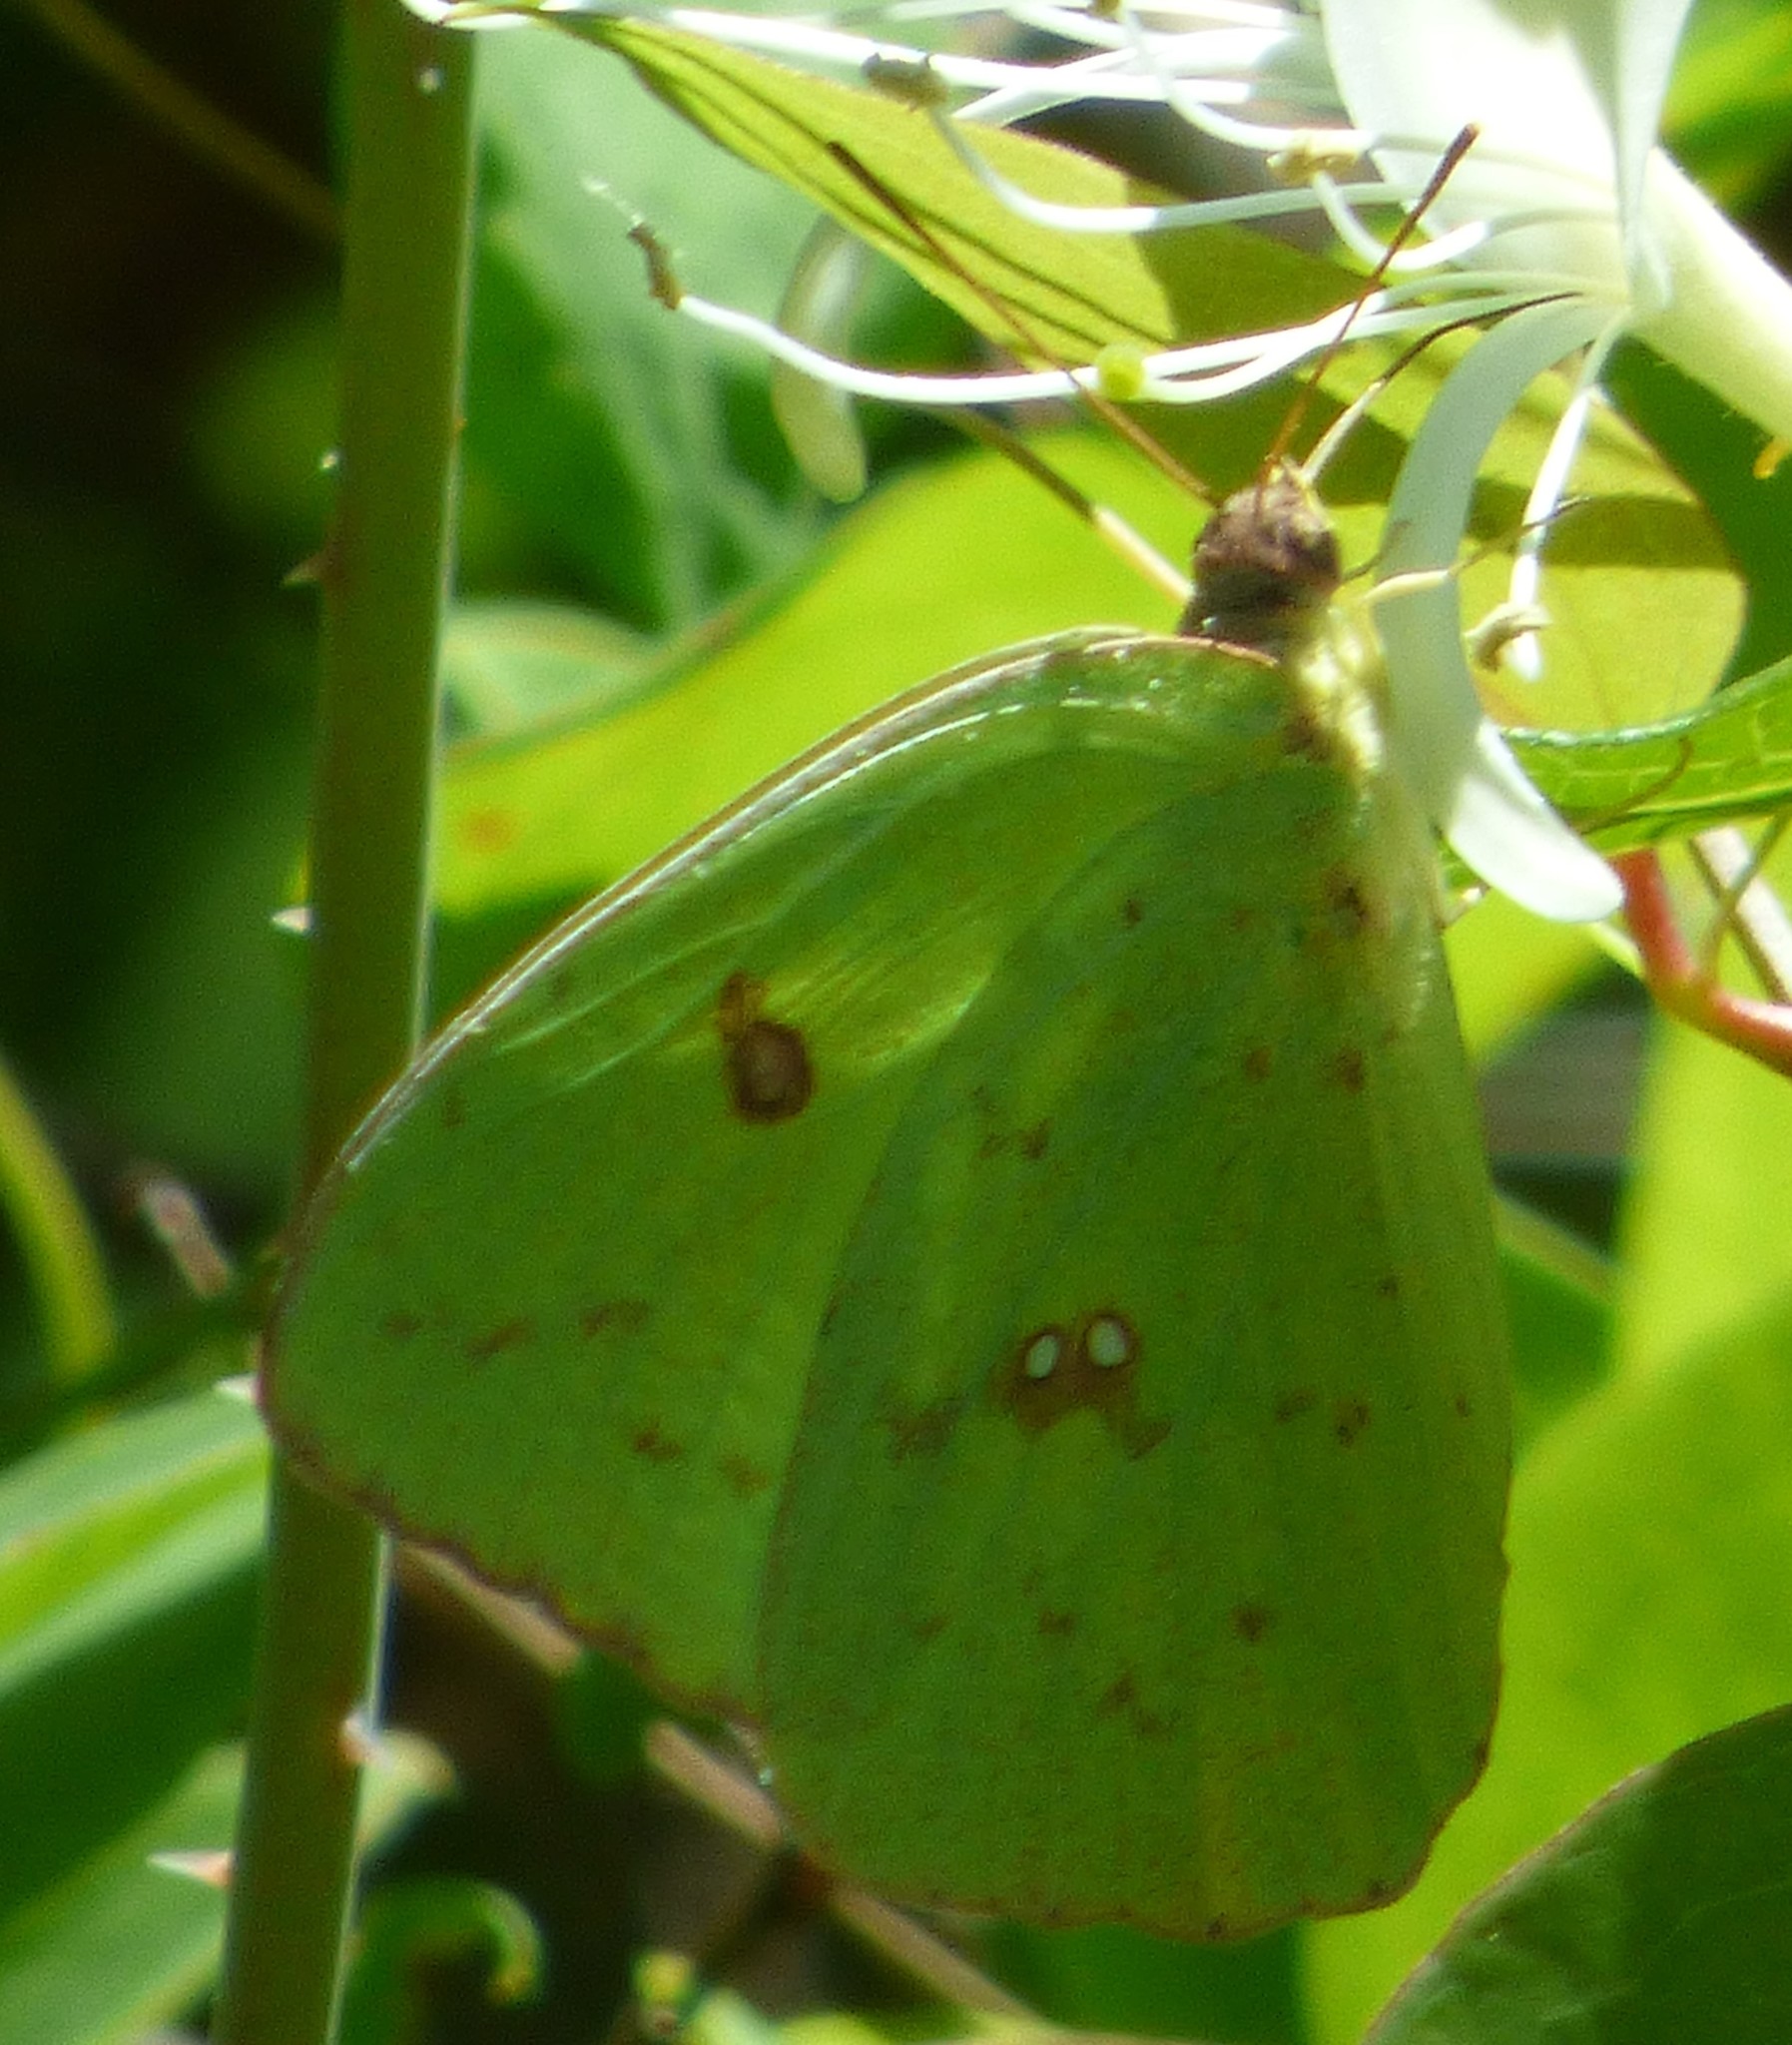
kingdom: Animalia
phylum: Arthropoda
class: Insecta
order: Lepidoptera
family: Pieridae
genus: Phoebis
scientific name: Phoebis sennae
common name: Cloudless sulphur
